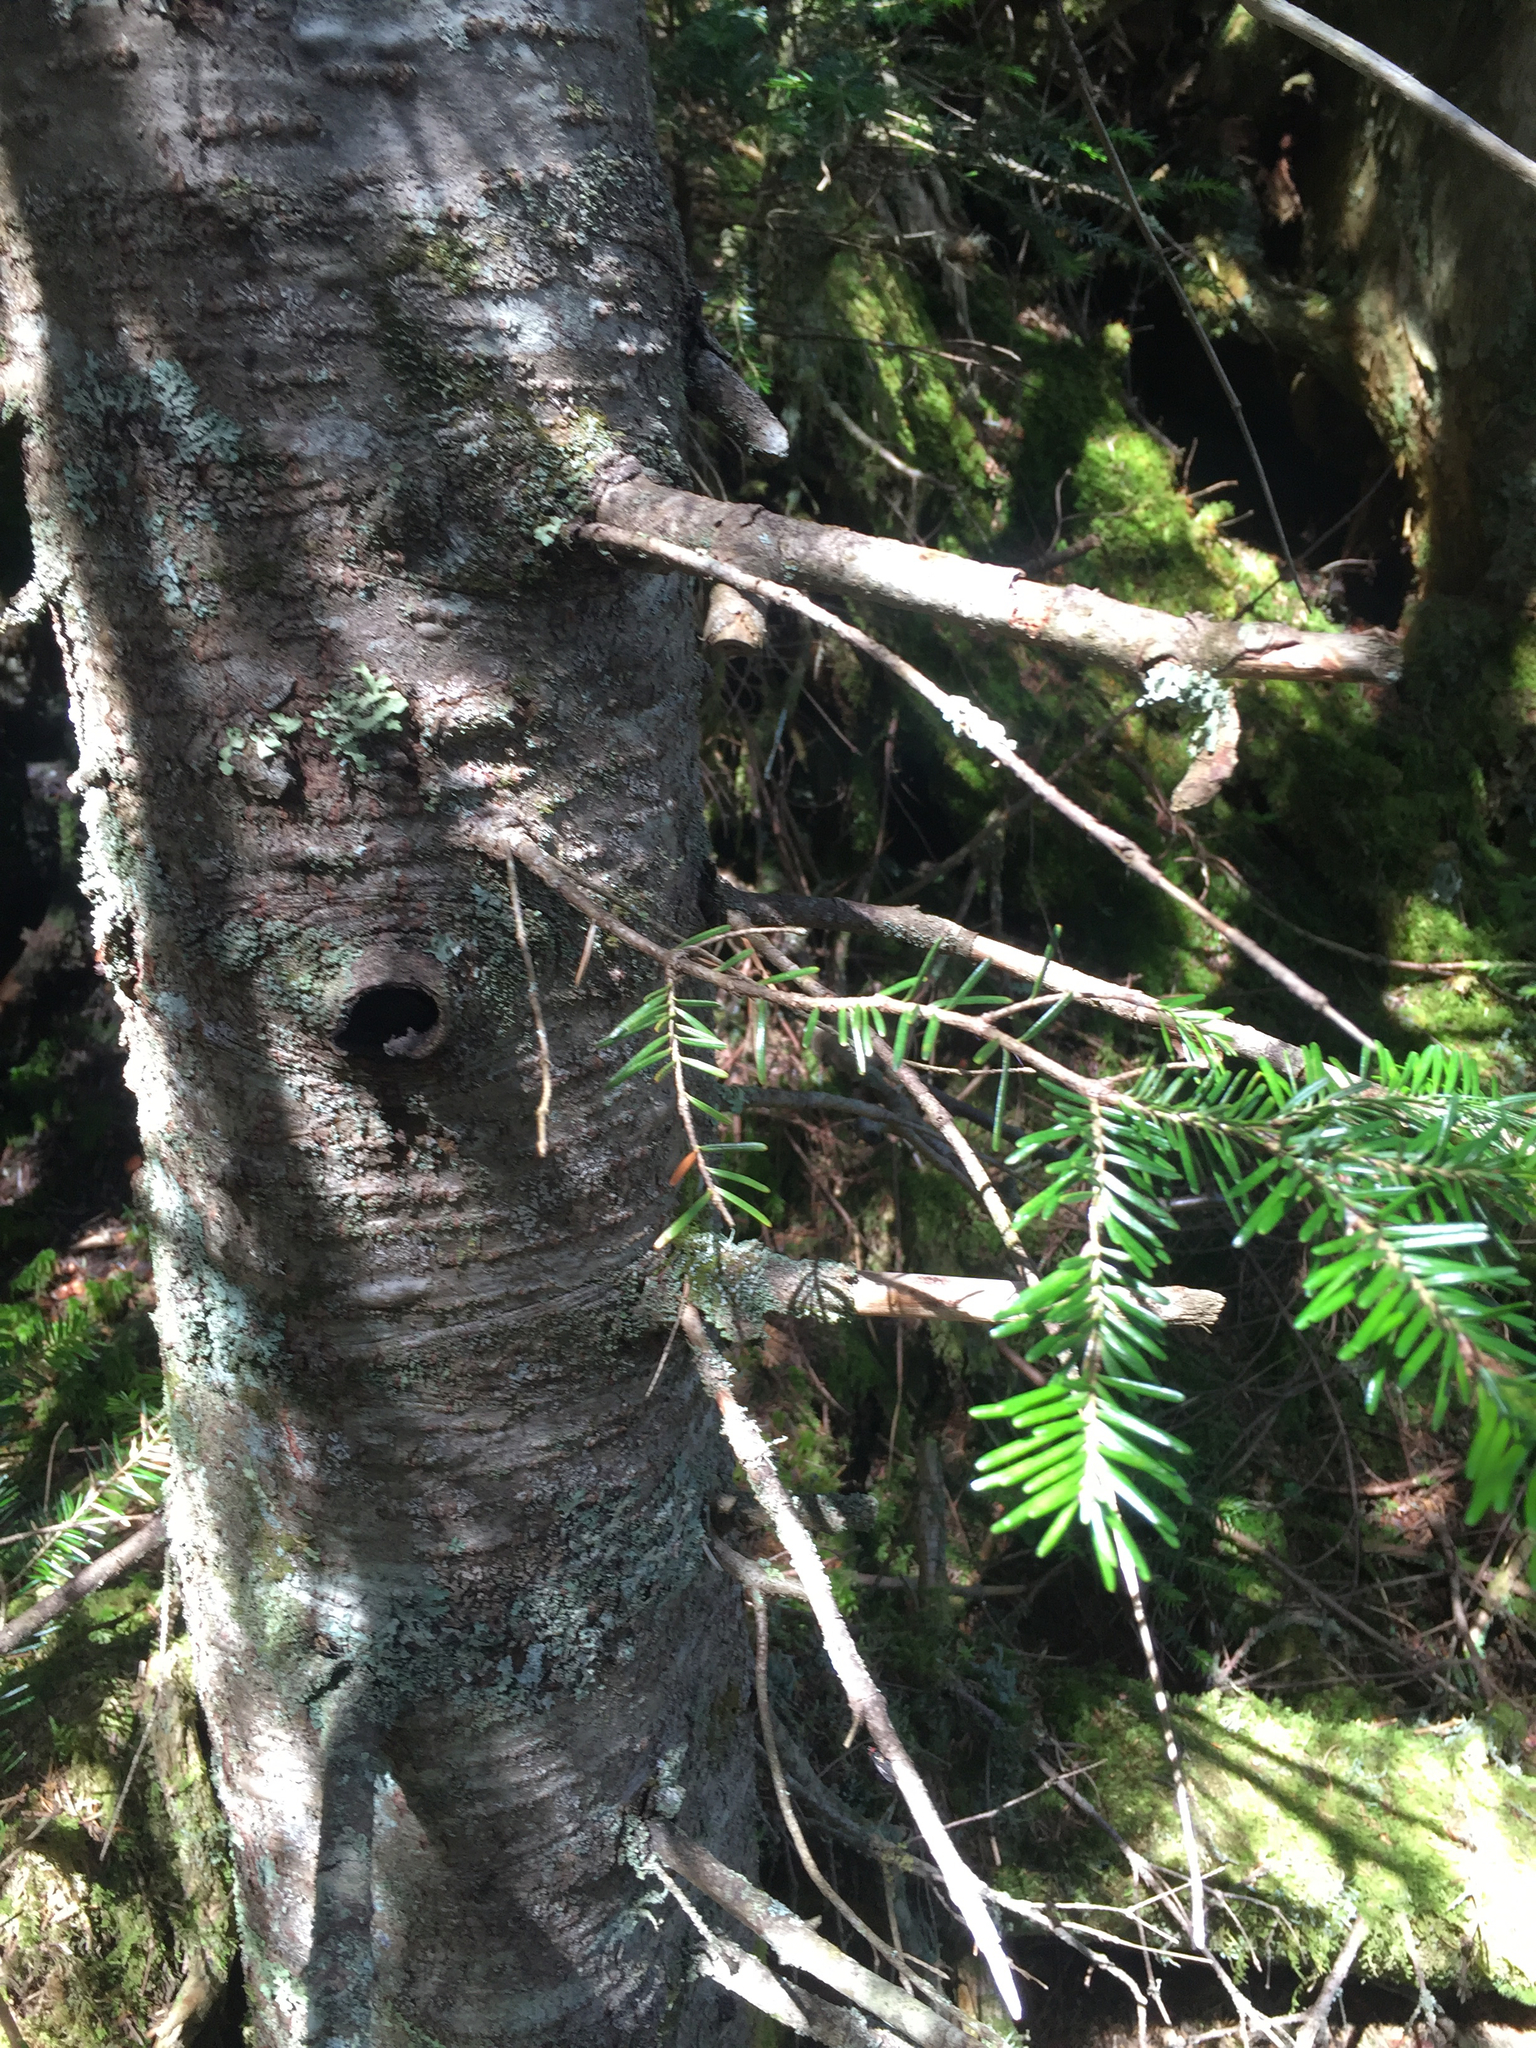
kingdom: Plantae
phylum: Tracheophyta
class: Pinopsida
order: Pinales
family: Pinaceae
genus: Abies
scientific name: Abies balsamea
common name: Balsam fir
